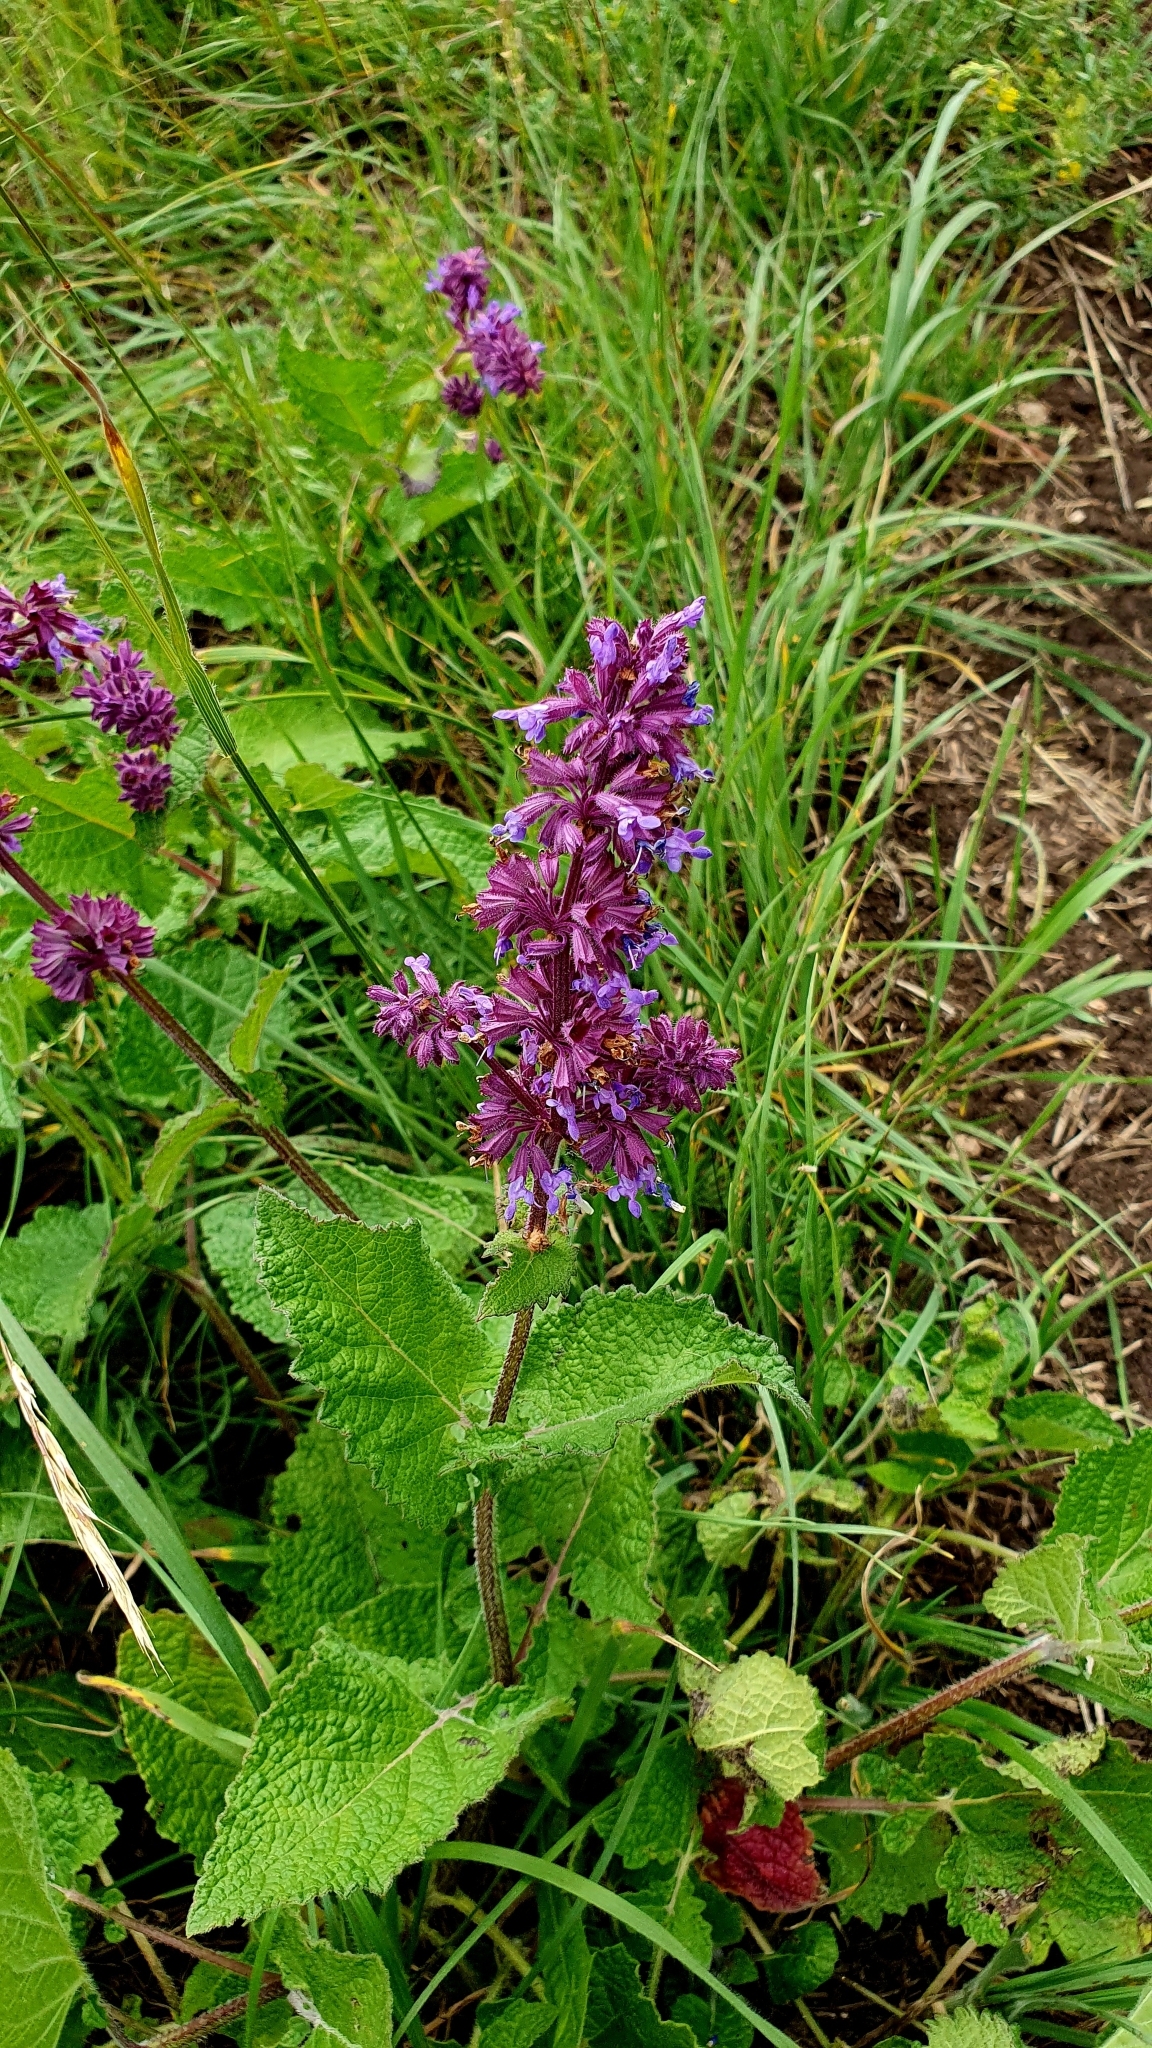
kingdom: Plantae
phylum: Tracheophyta
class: Magnoliopsida
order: Lamiales
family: Lamiaceae
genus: Salvia
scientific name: Salvia verticillata
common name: Whorled clary
